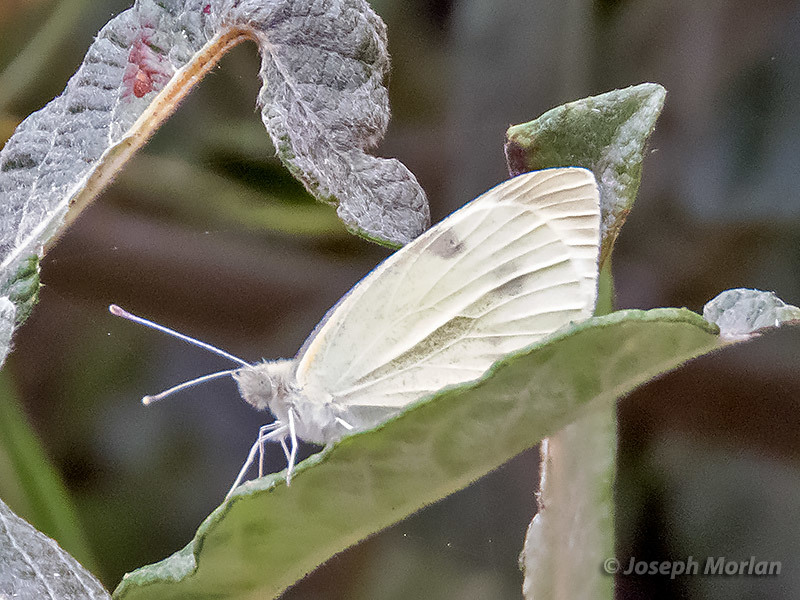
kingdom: Animalia
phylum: Arthropoda
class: Insecta
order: Lepidoptera
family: Pieridae
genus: Pieris
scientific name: Pieris rapae
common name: Small white
